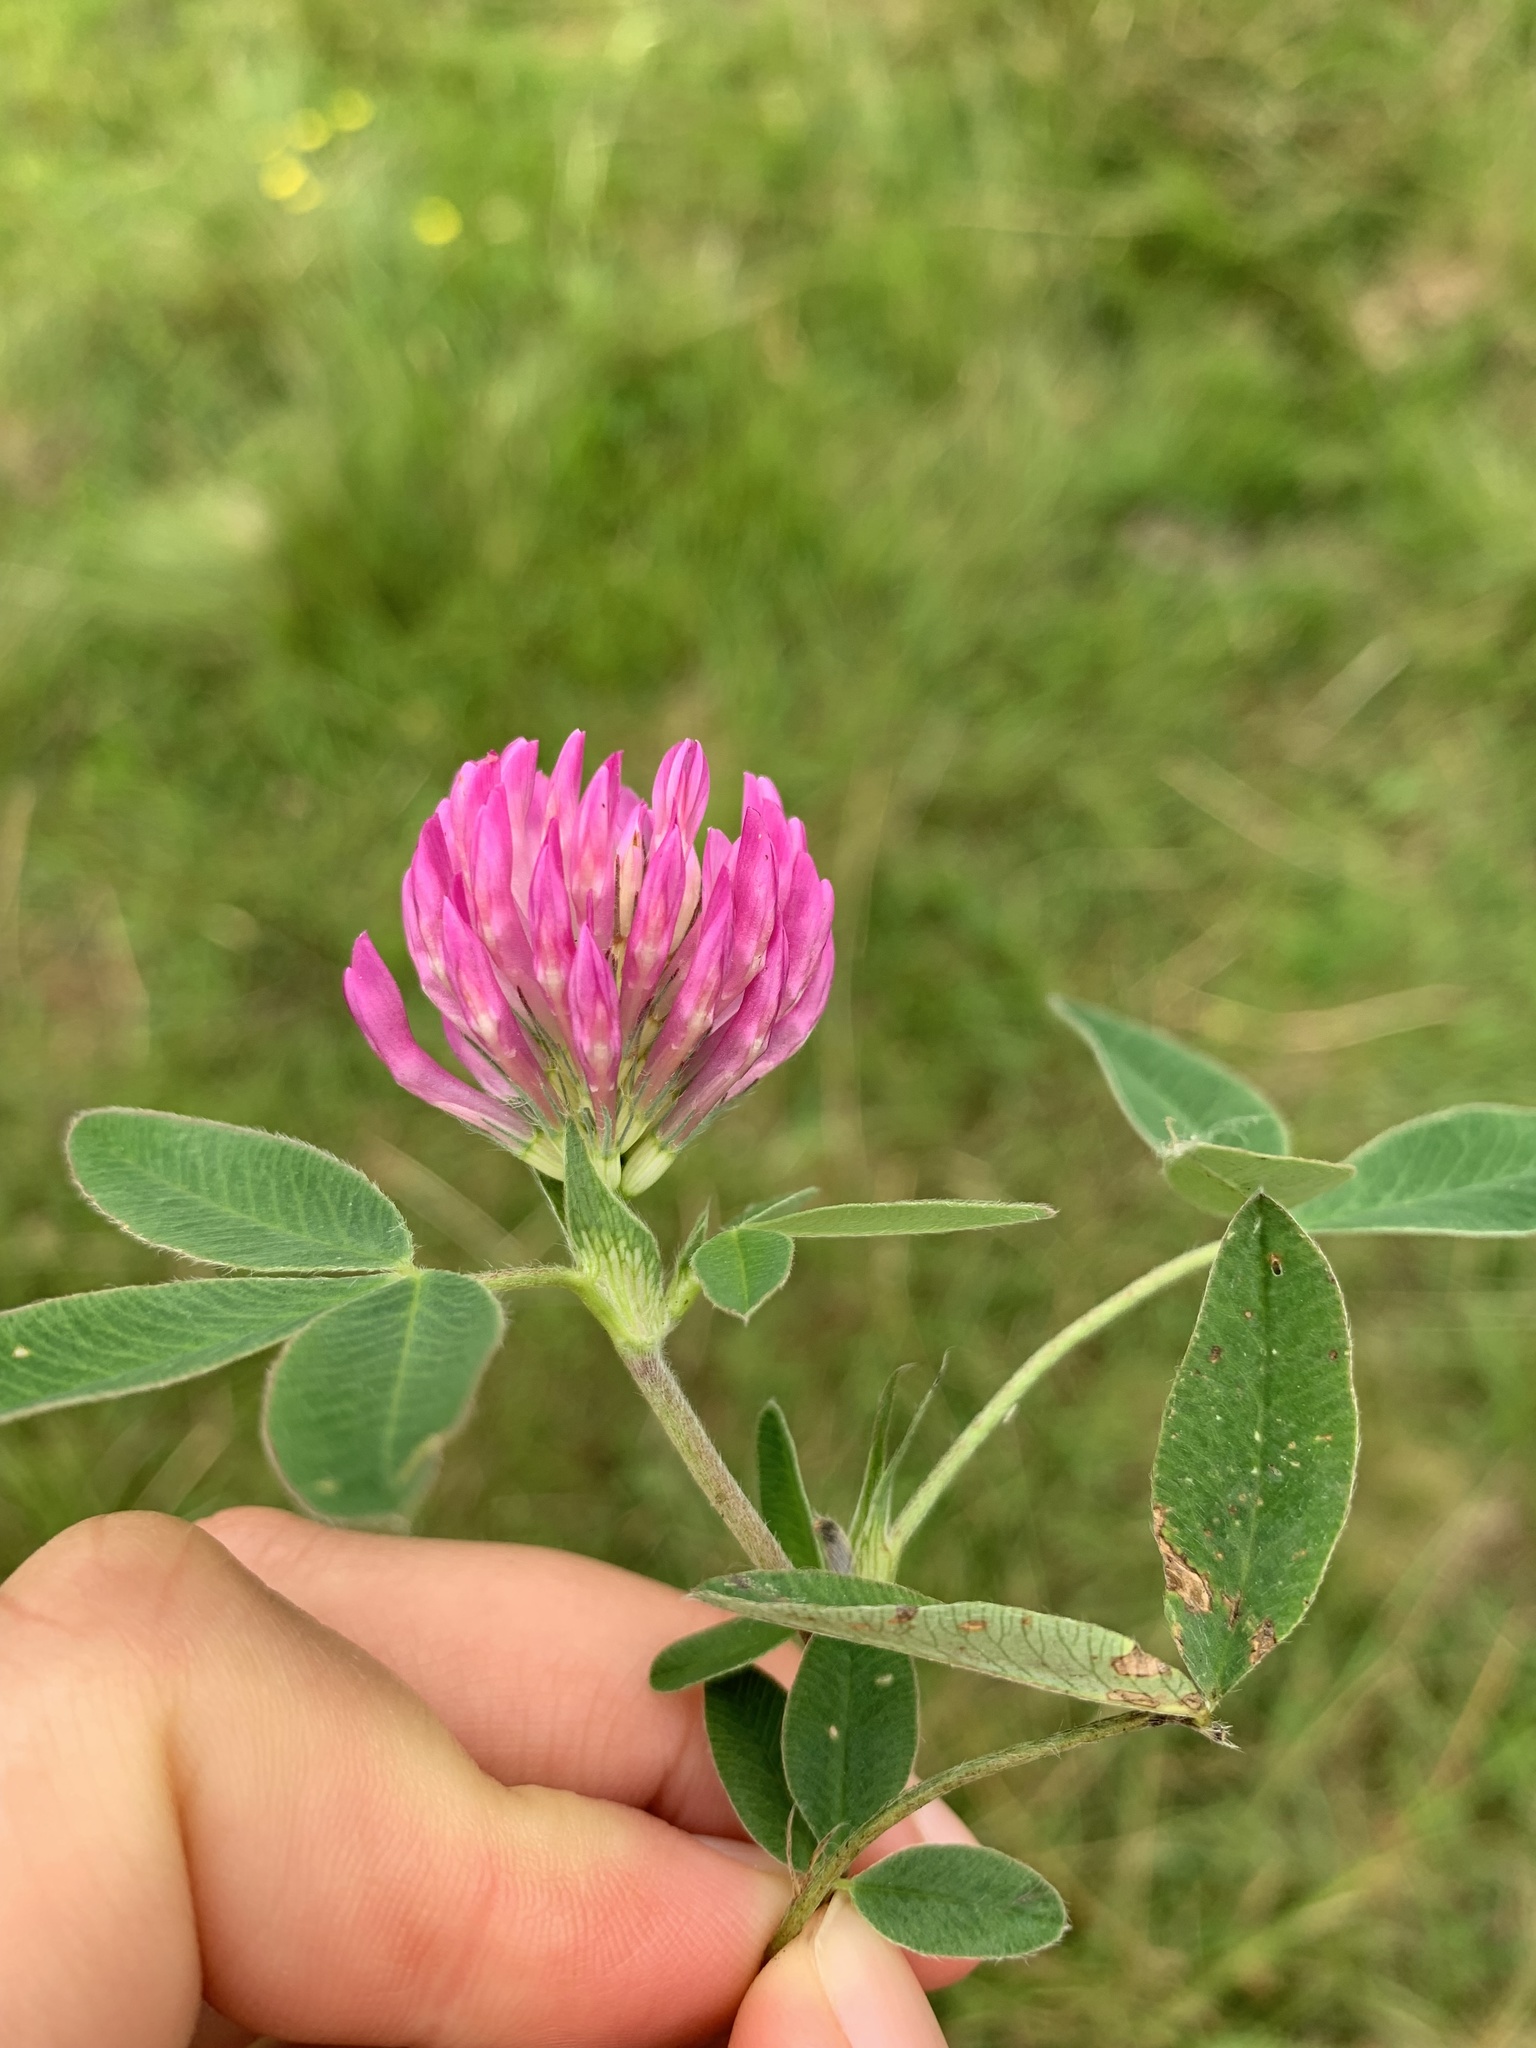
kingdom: Plantae
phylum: Tracheophyta
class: Magnoliopsida
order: Fabales
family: Fabaceae
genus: Trifolium
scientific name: Trifolium medium
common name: Zigzag clover
